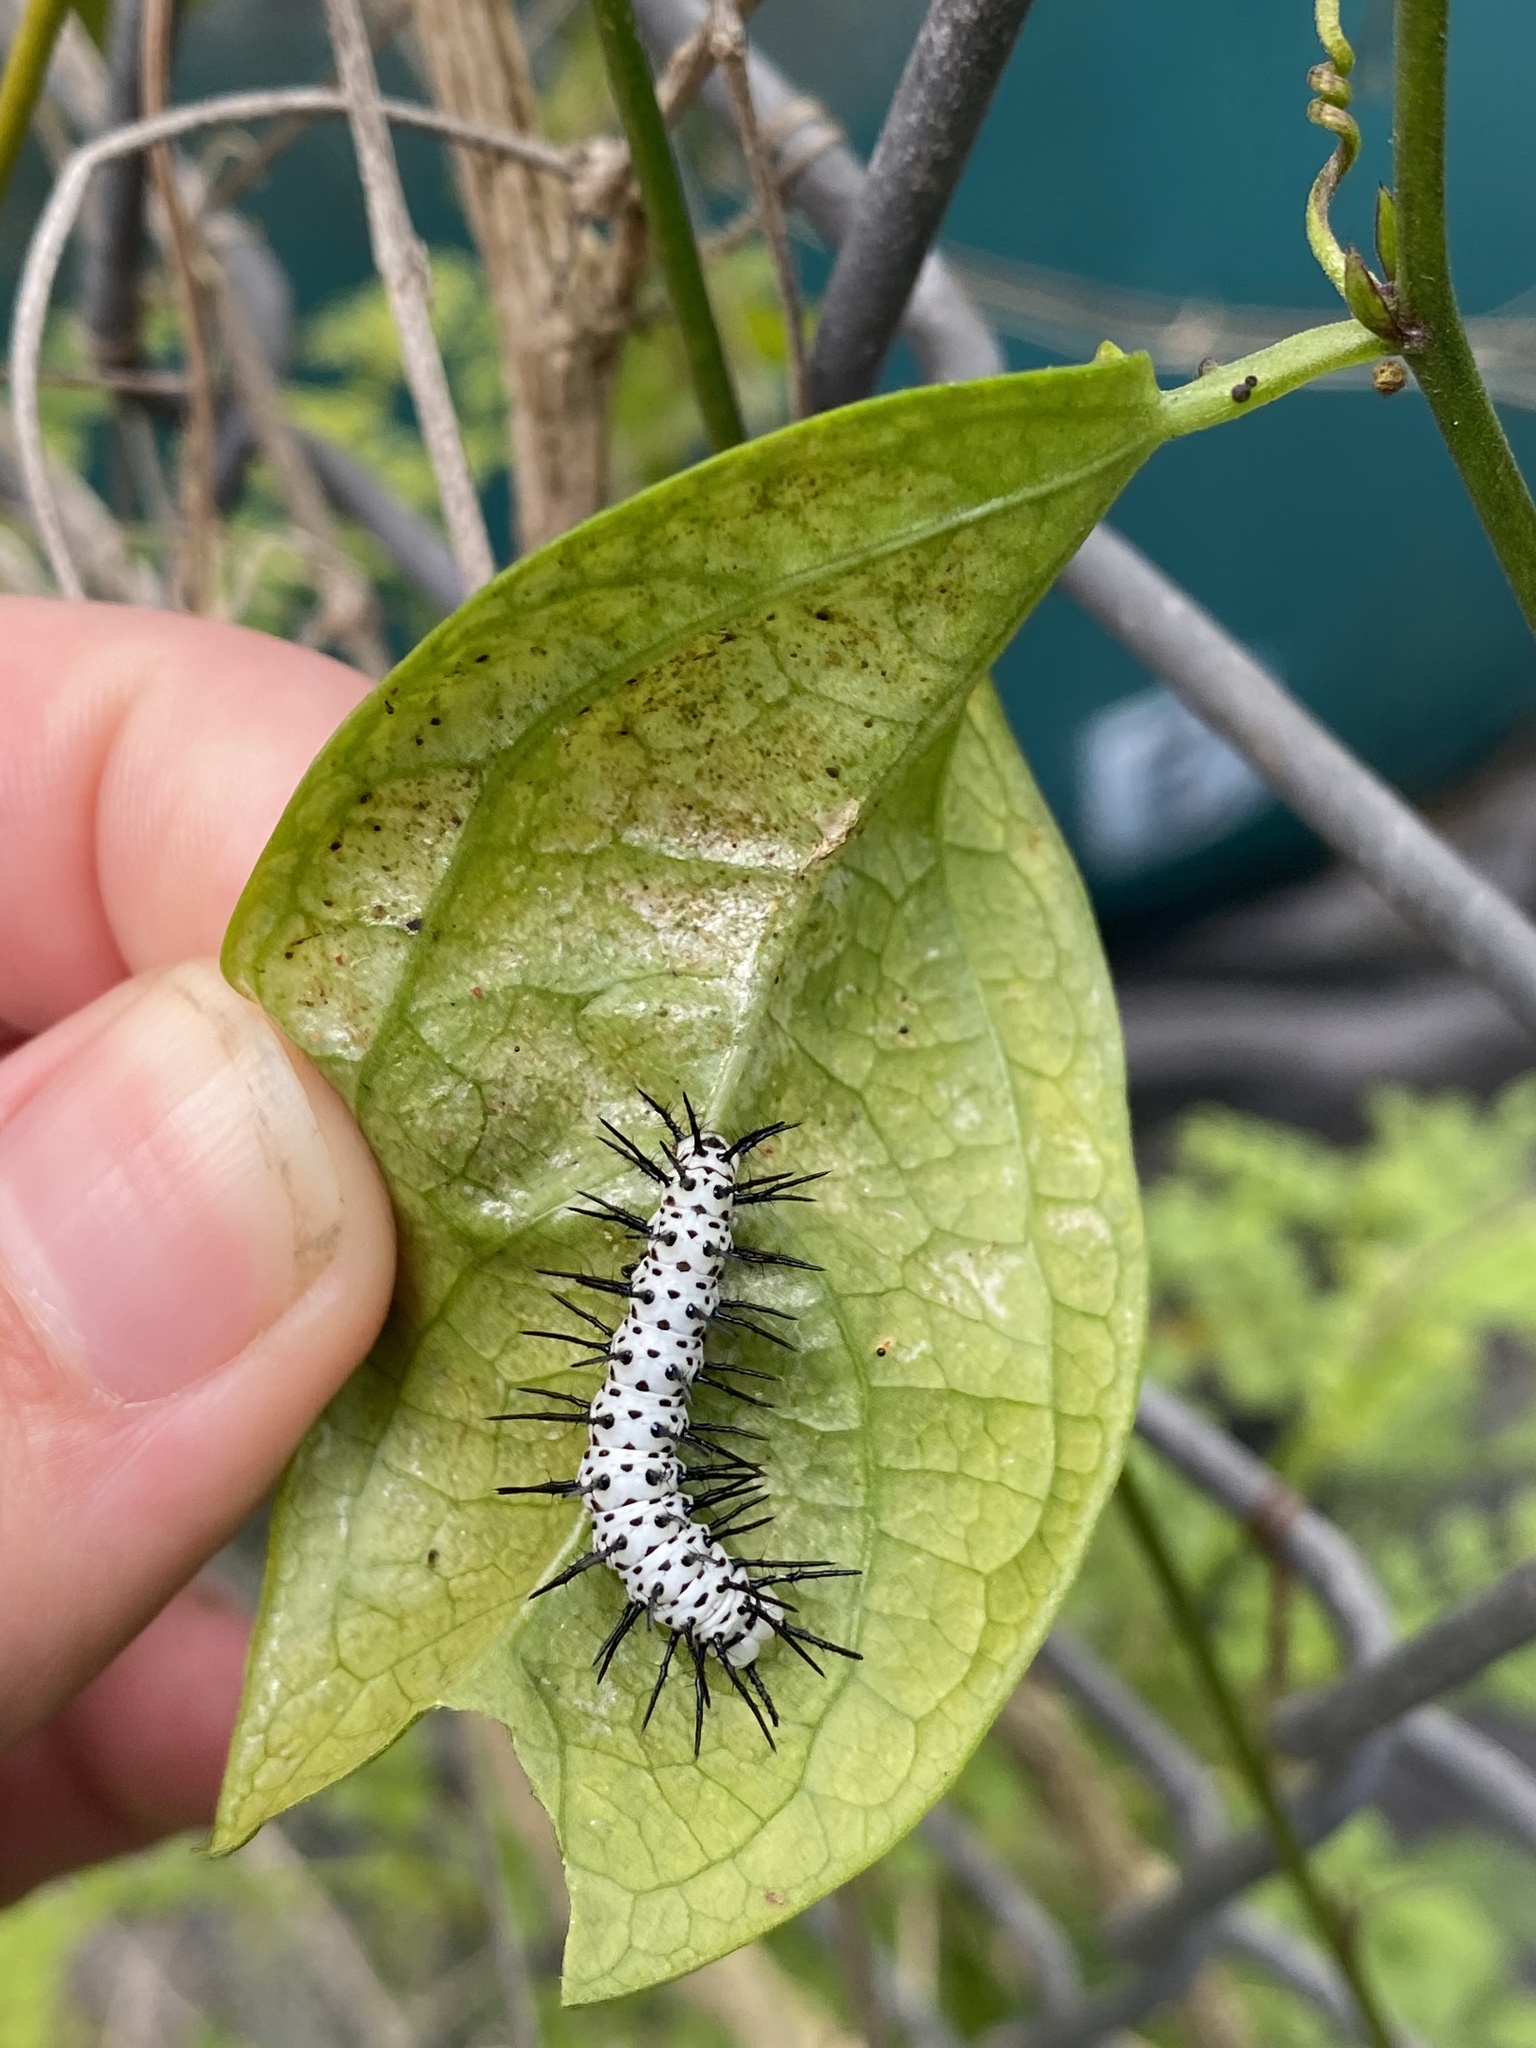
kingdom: Animalia
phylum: Arthropoda
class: Insecta
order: Lepidoptera
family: Nymphalidae
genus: Heliconius
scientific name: Heliconius charithonia
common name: Zebra long wing
